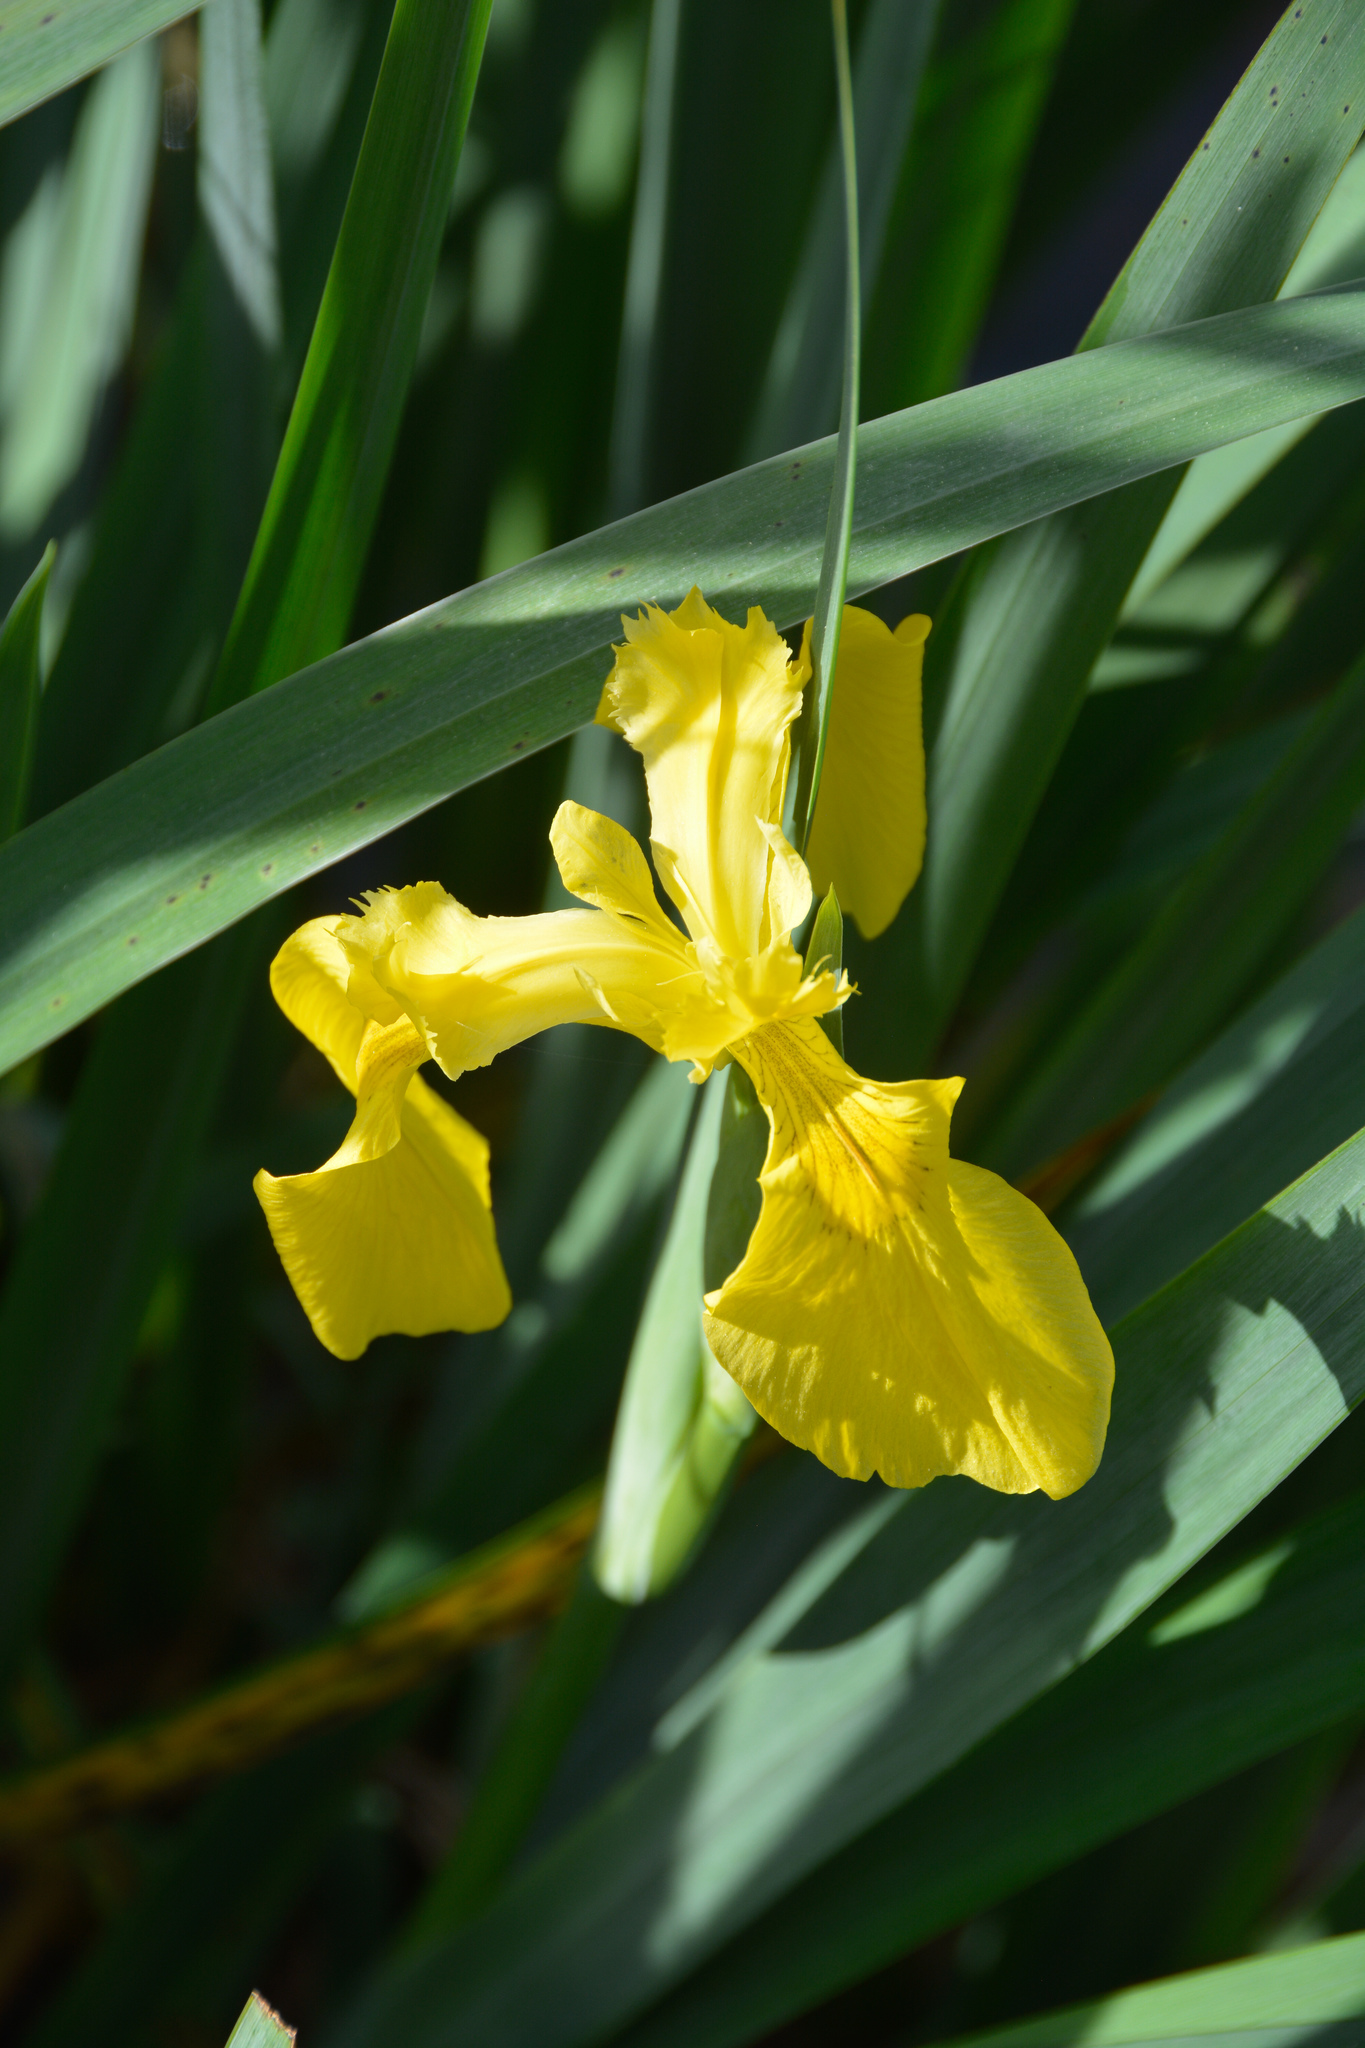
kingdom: Plantae
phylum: Tracheophyta
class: Liliopsida
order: Asparagales
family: Iridaceae
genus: Iris
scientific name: Iris pseudacorus
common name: Yellow flag
